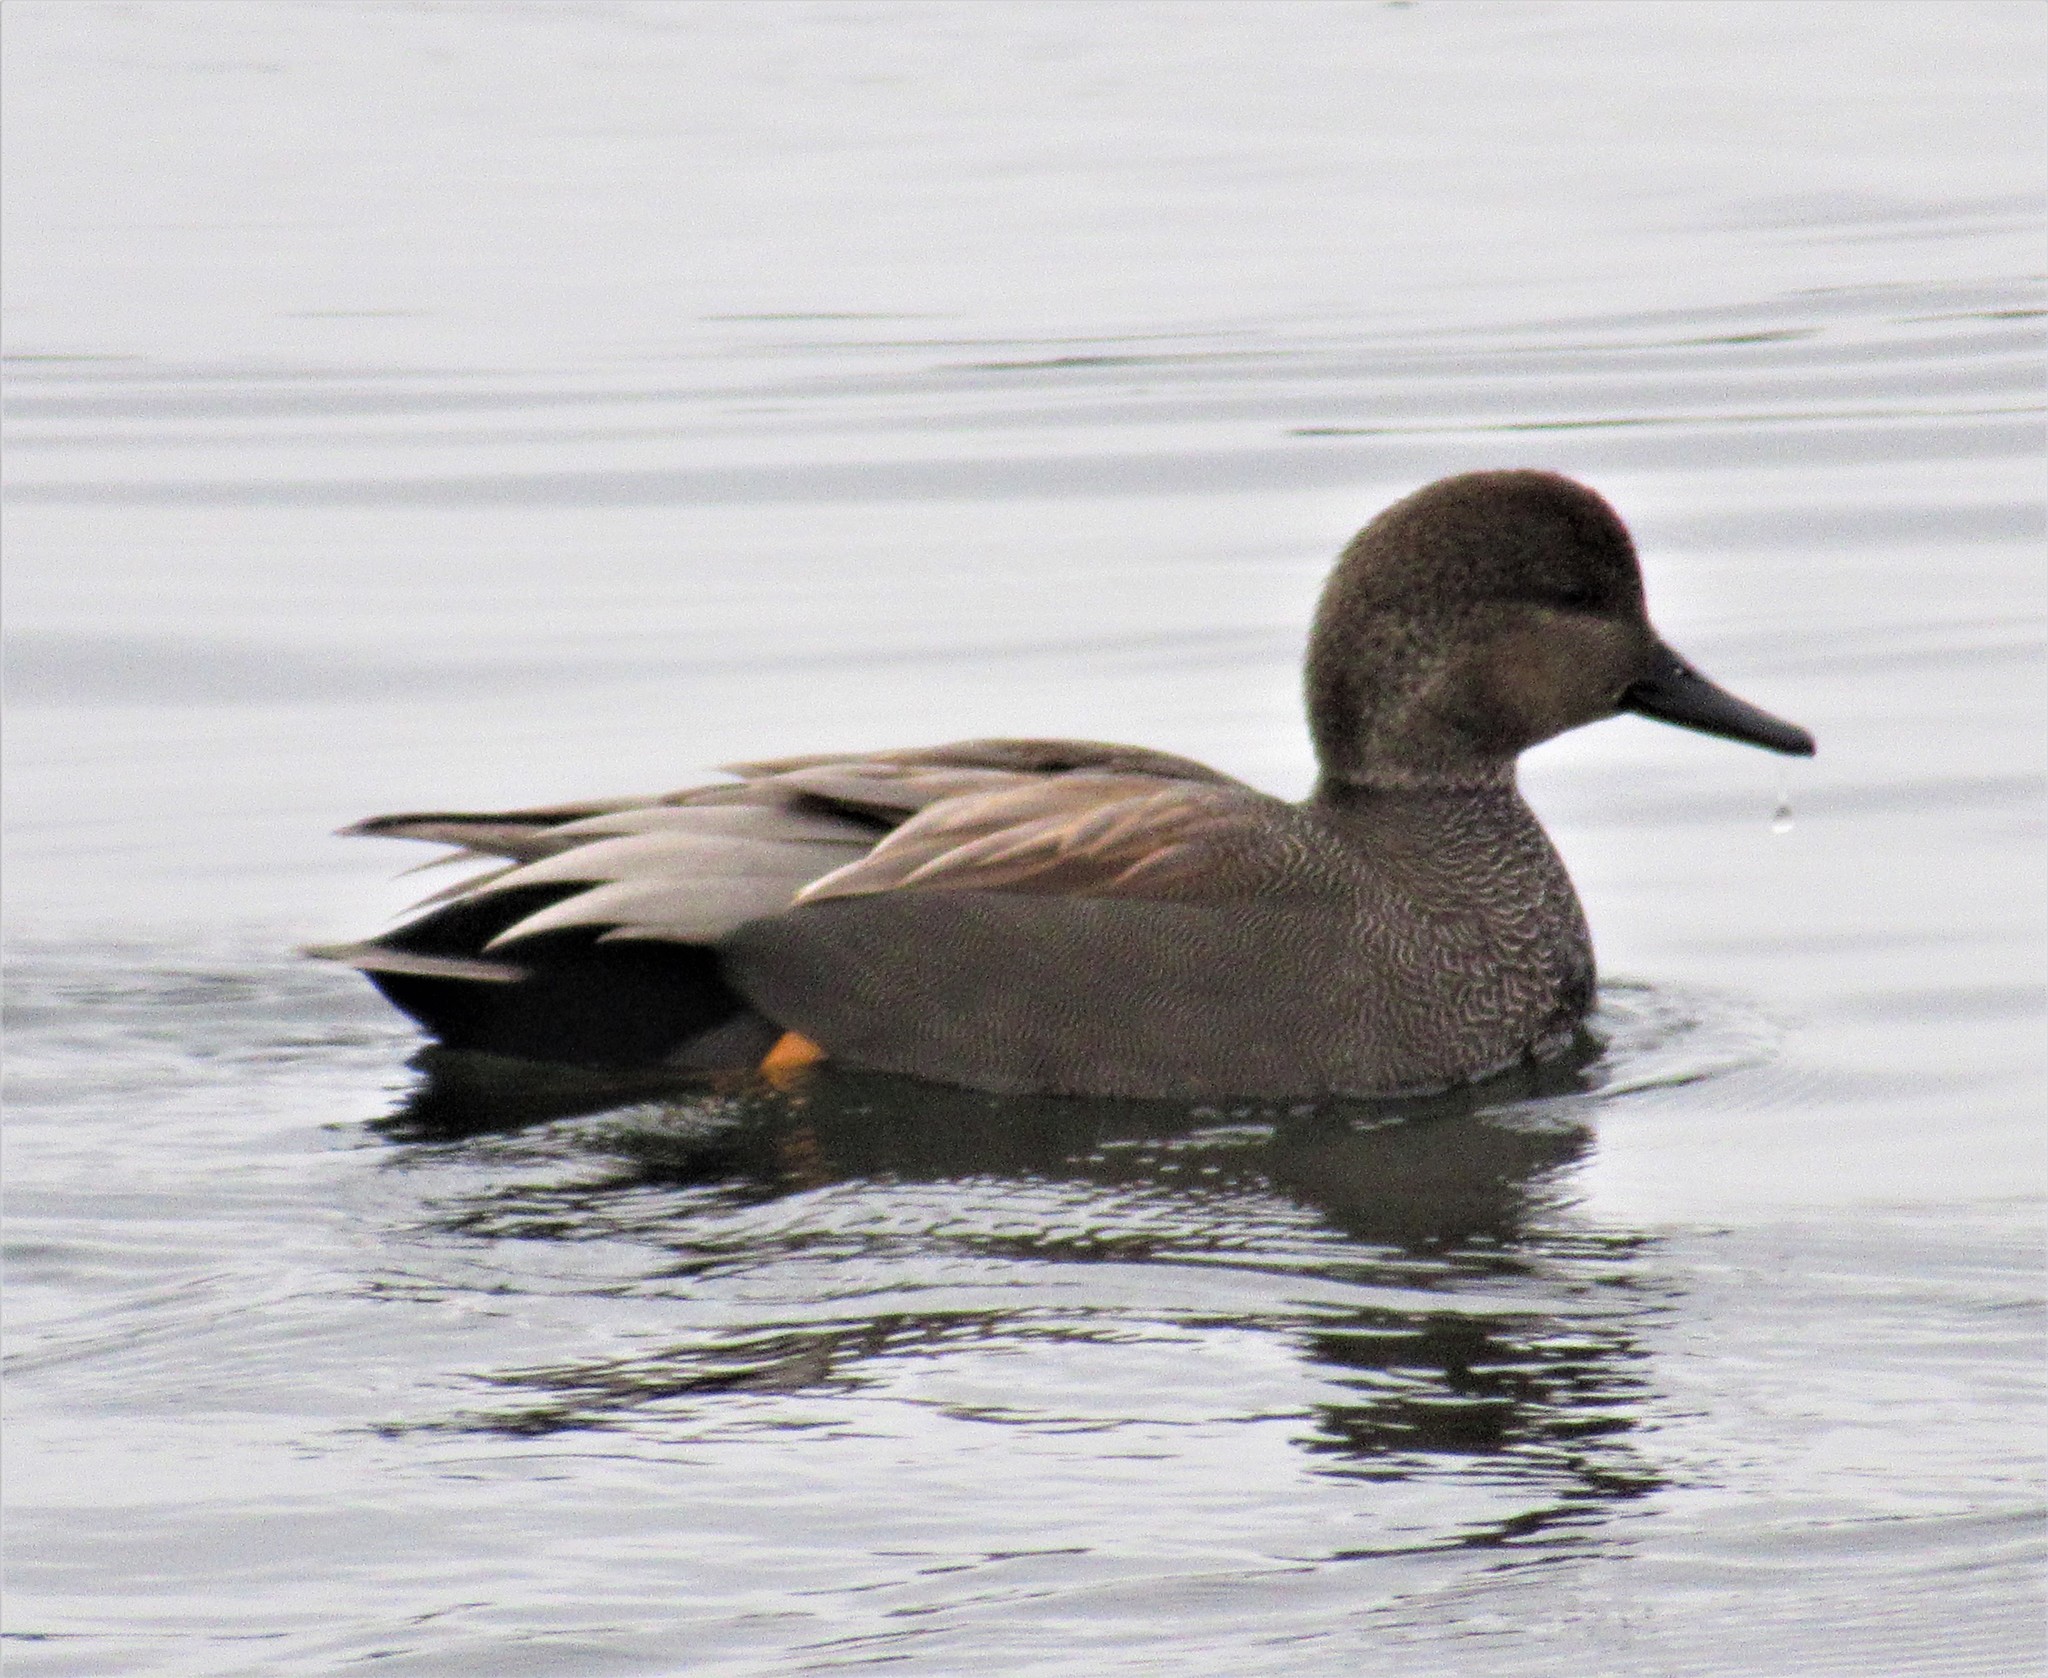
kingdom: Animalia
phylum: Chordata
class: Aves
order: Anseriformes
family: Anatidae
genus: Mareca
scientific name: Mareca strepera
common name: Gadwall
